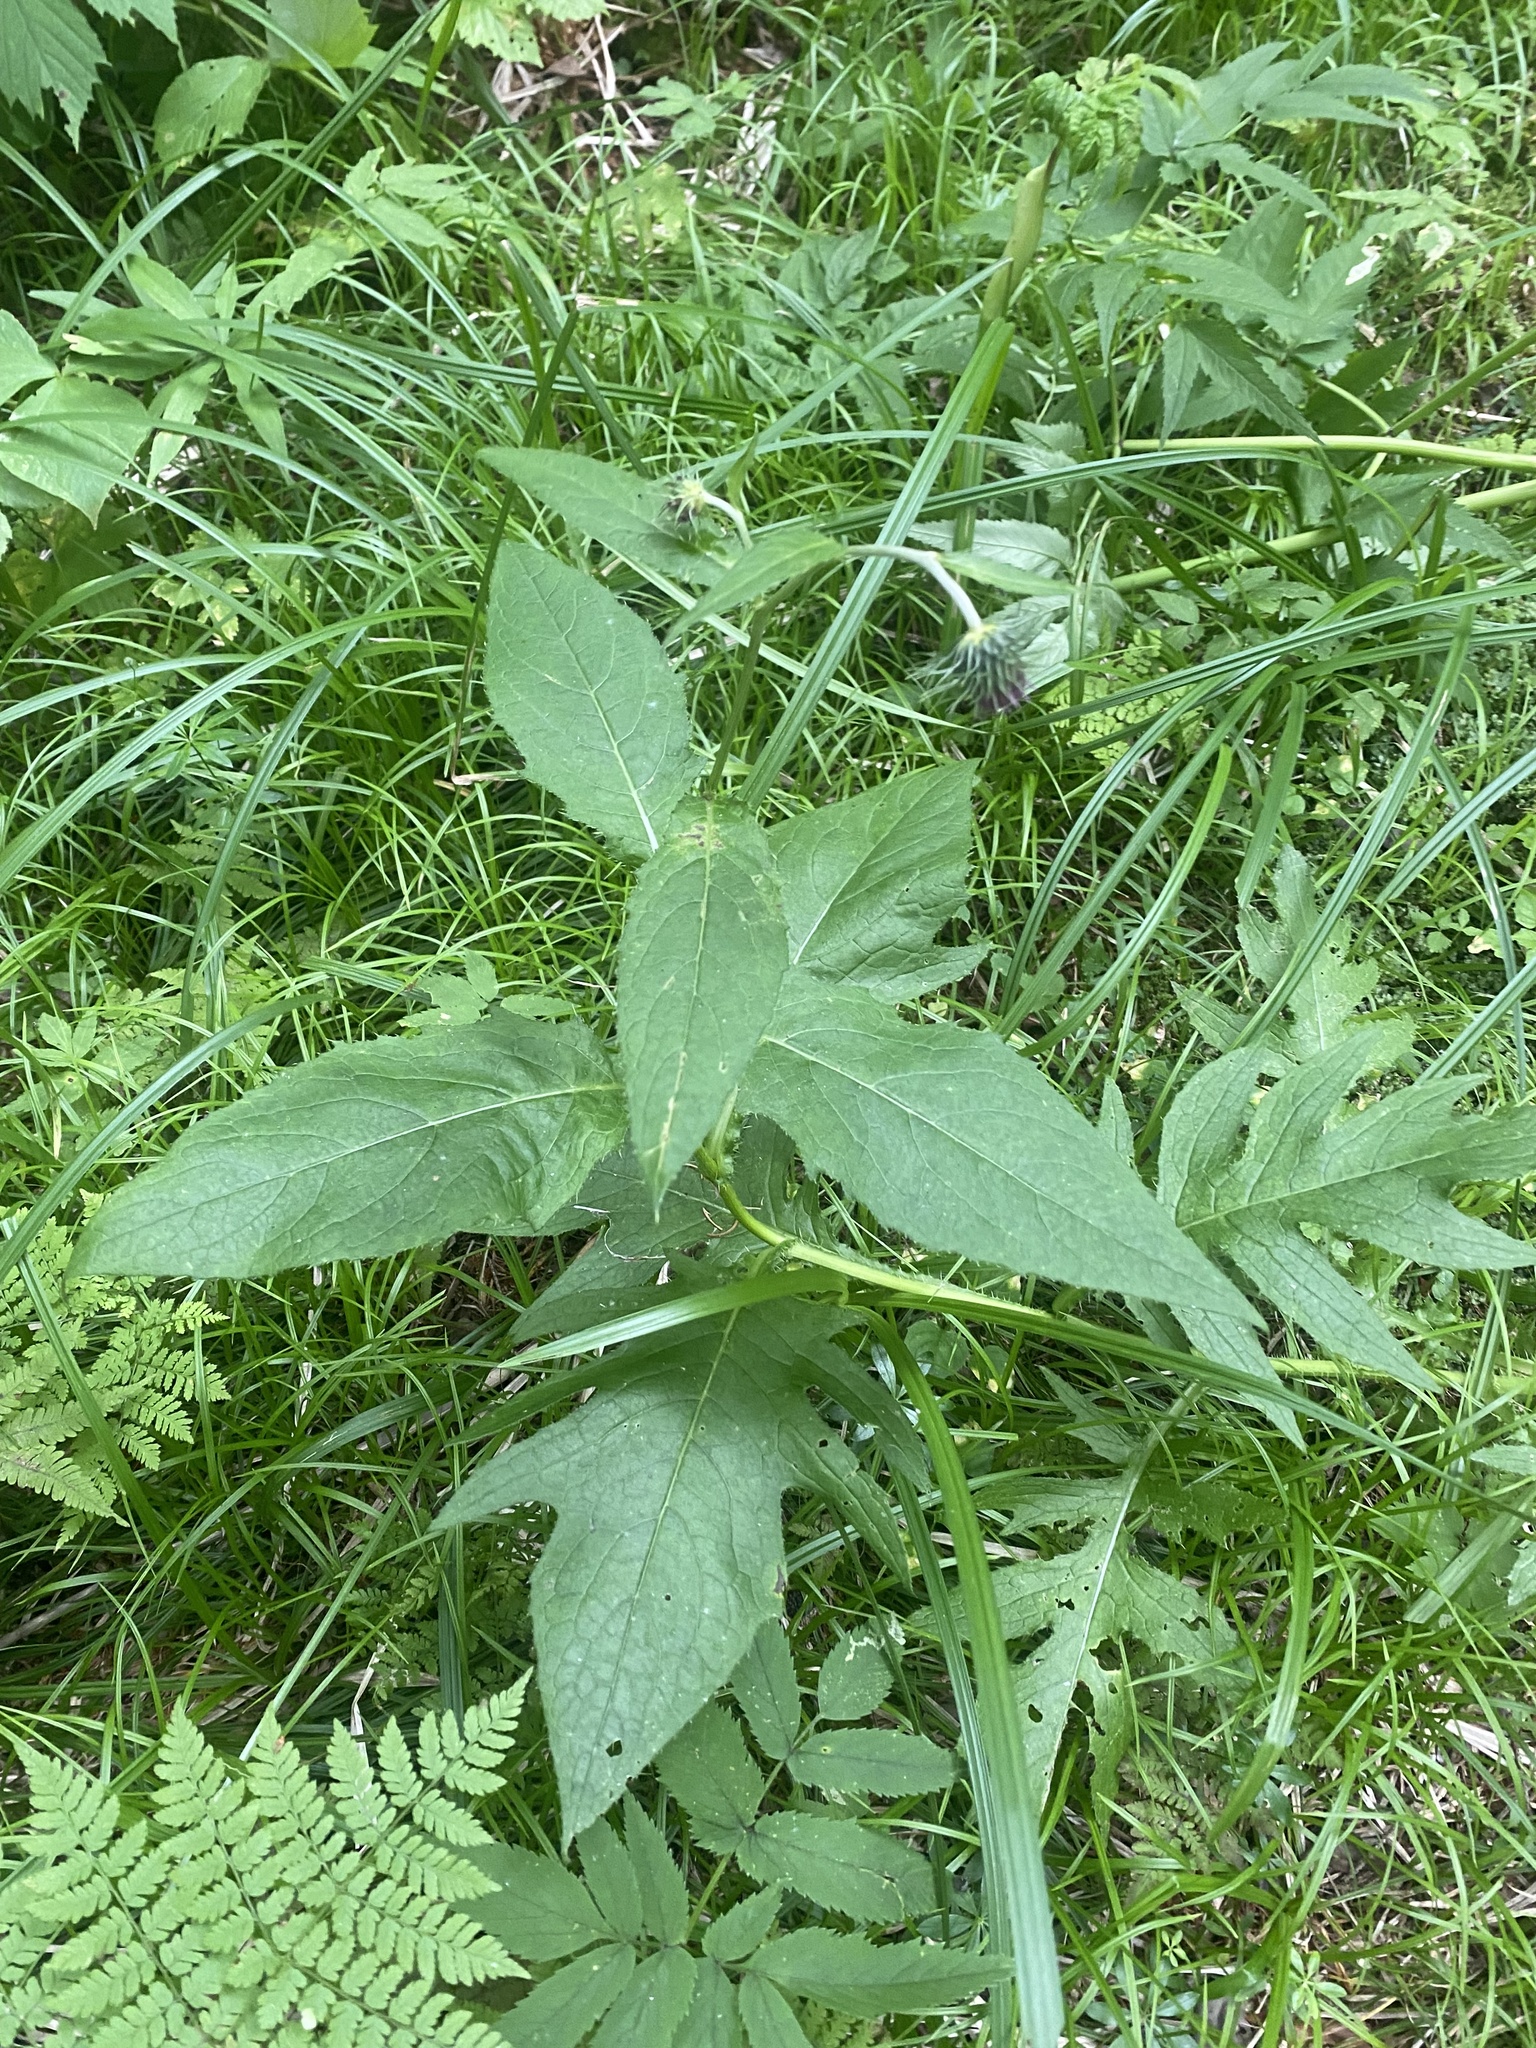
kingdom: Plantae
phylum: Tracheophyta
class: Magnoliopsida
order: Asterales
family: Asteraceae
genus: Cirsium
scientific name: Cirsium kamtschaticum
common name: Kamchatka thistle
